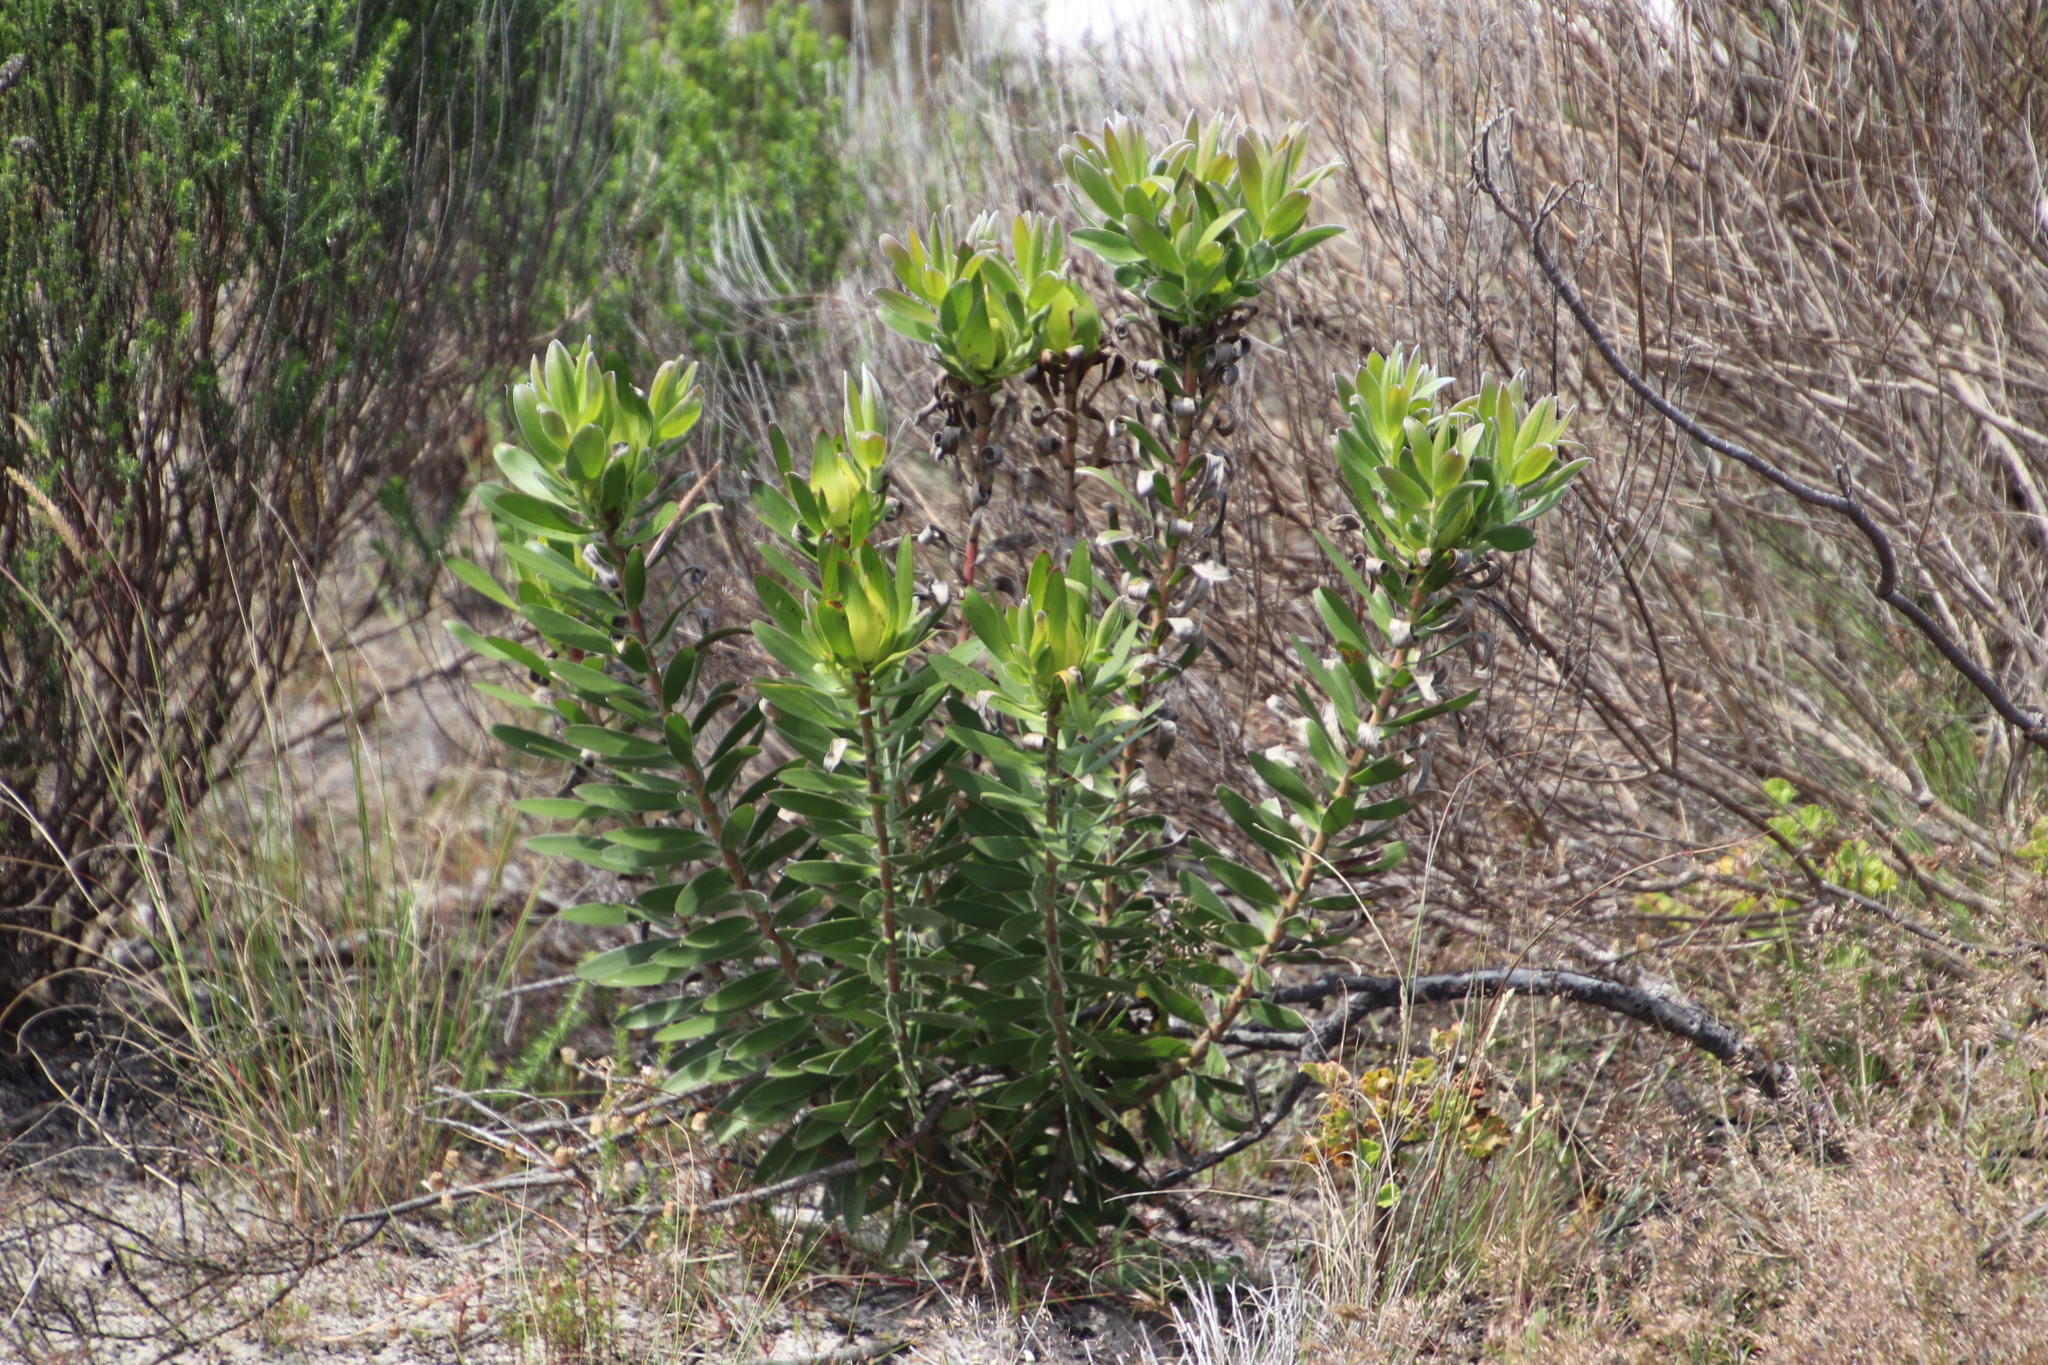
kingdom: Plantae
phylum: Tracheophyta
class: Magnoliopsida
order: Proteales
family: Proteaceae
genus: Leucadendron
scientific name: Leucadendron laureolum
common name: Golden sunshinebush
